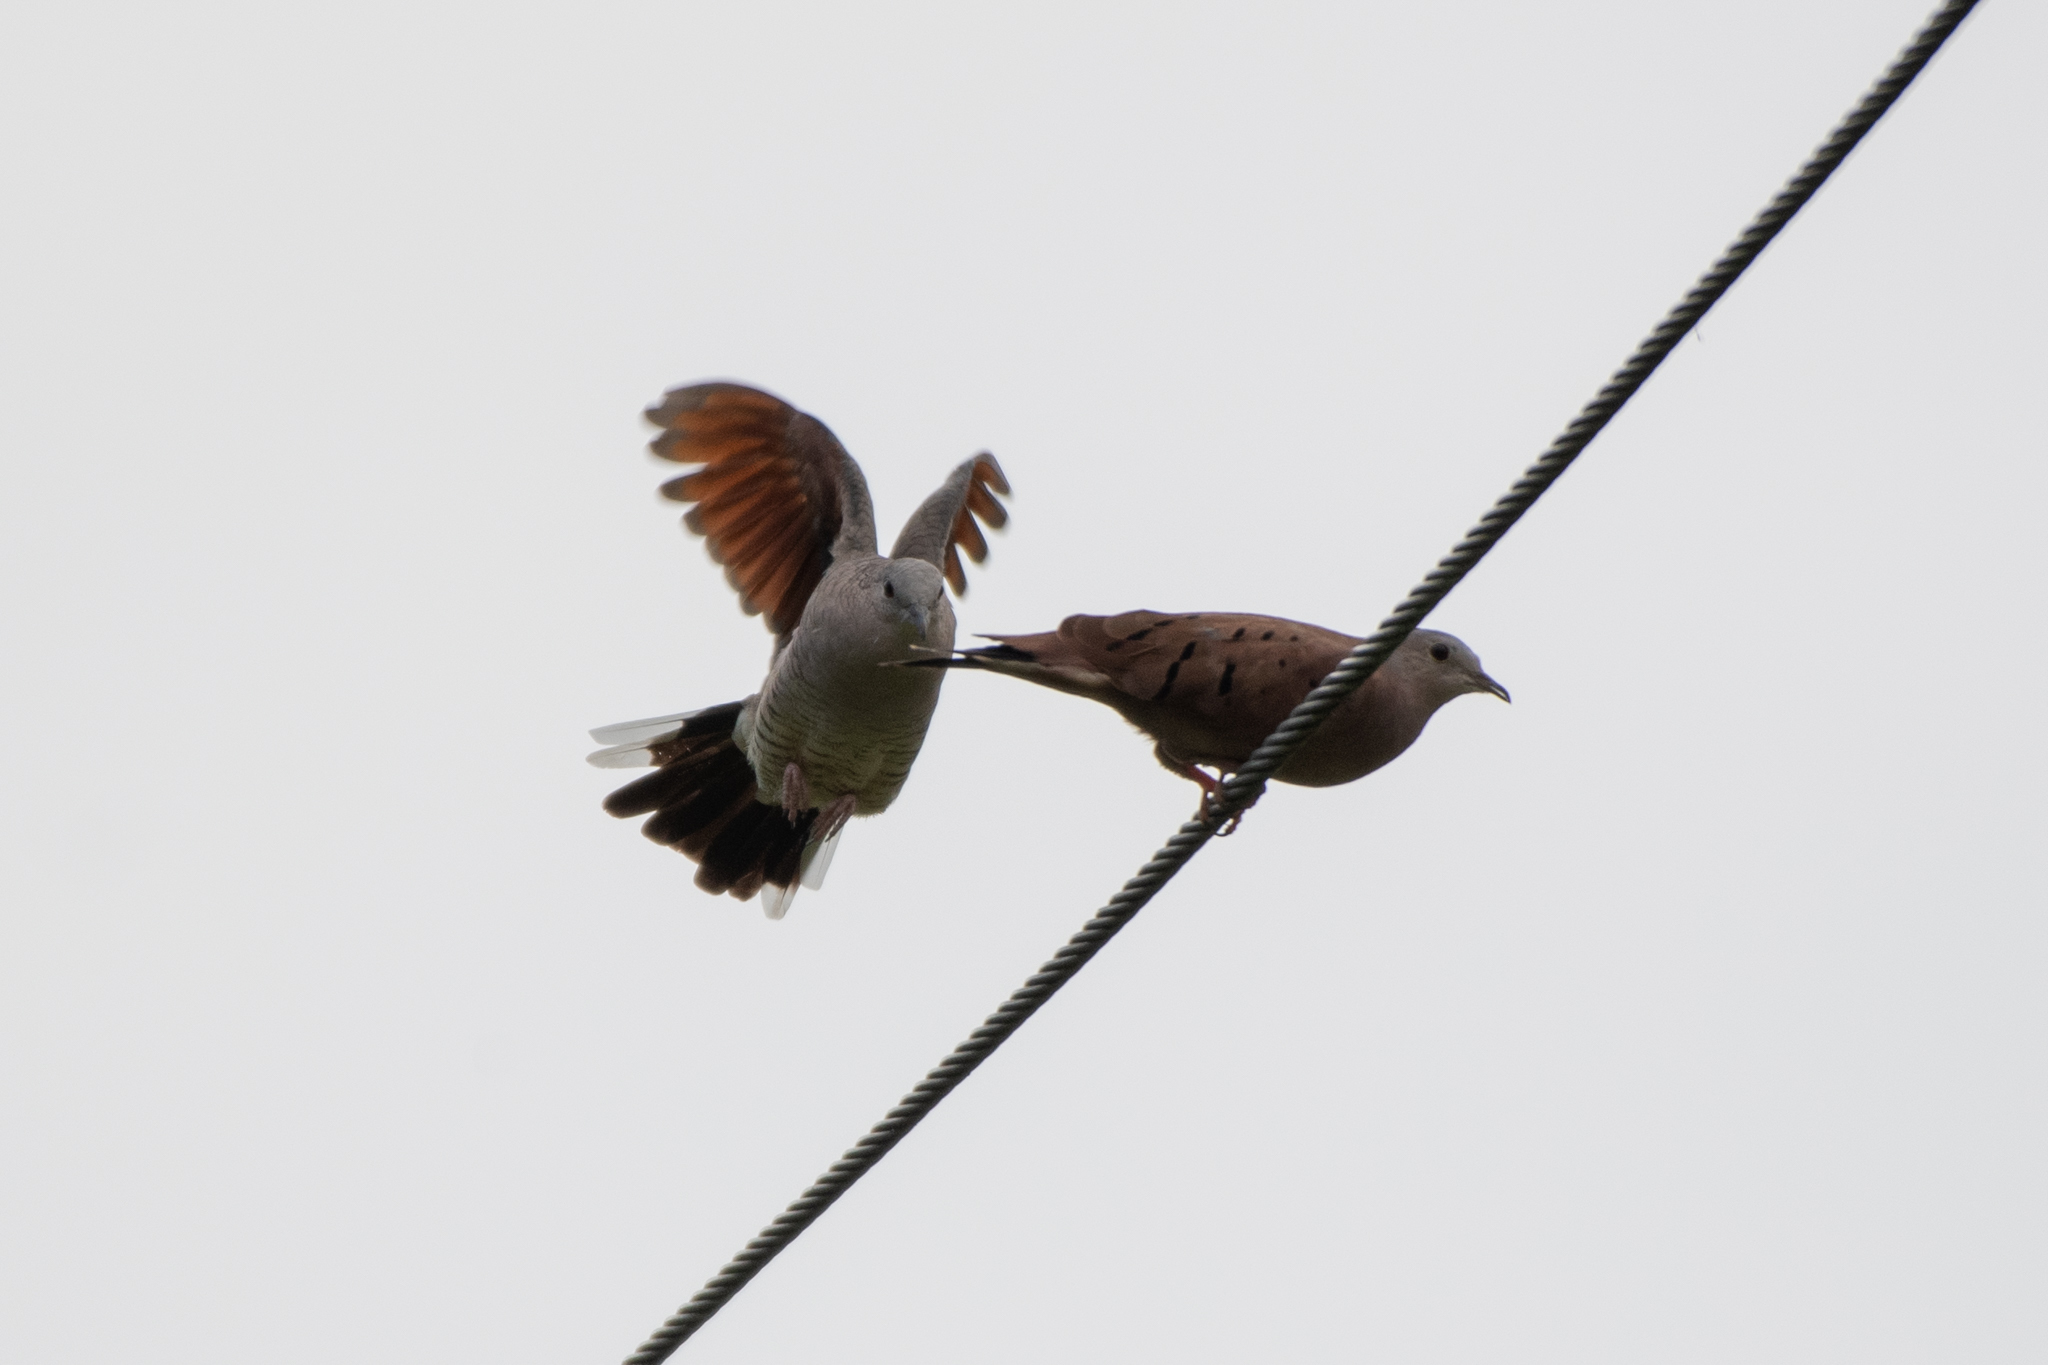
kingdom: Animalia
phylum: Chordata
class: Aves
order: Columbiformes
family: Columbidae
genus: Columbina
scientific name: Columbina inca
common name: Inca dove
